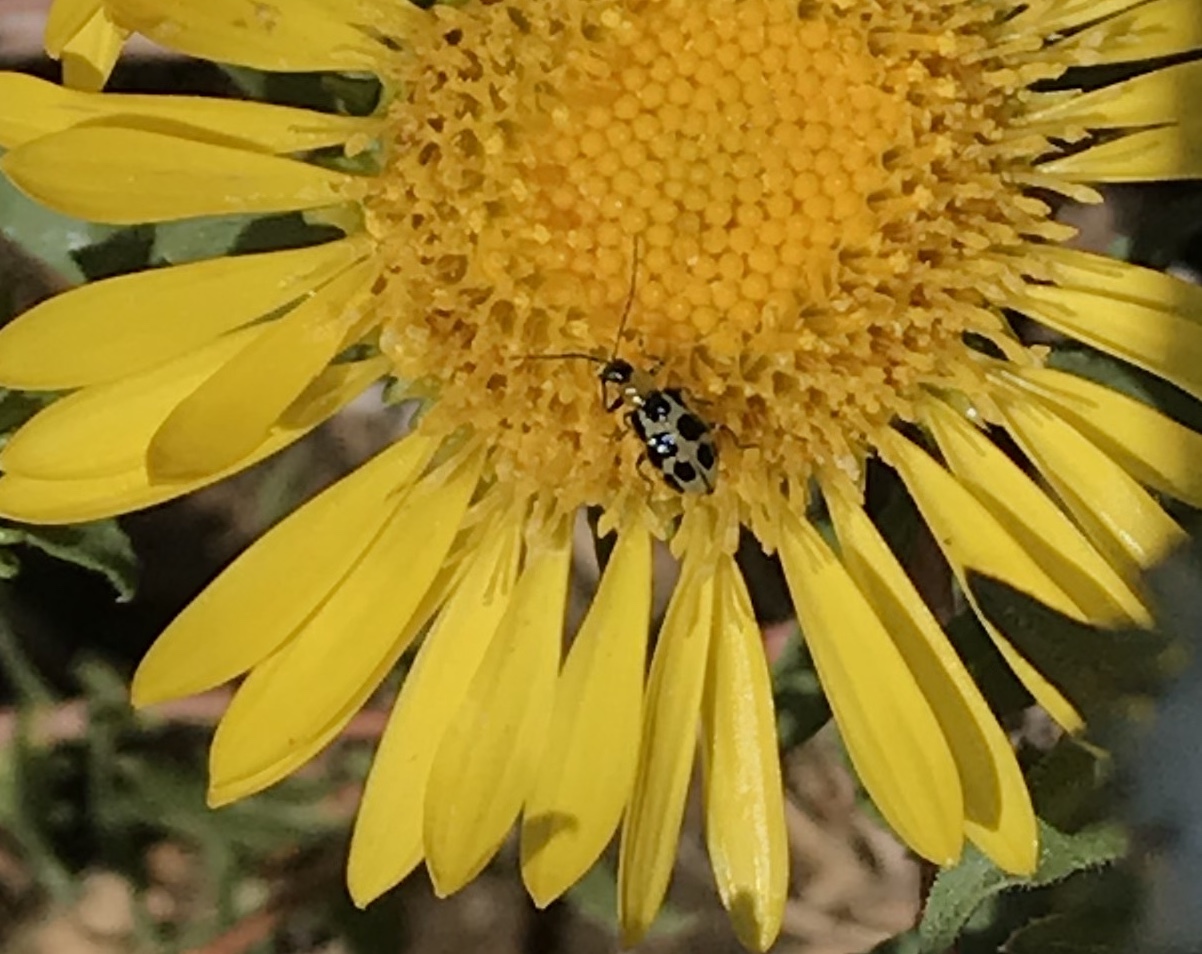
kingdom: Animalia
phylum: Arthropoda
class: Insecta
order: Coleoptera
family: Chrysomelidae
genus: Diabrotica
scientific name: Diabrotica undecimpunctata
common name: Spotted cucumber beetle
